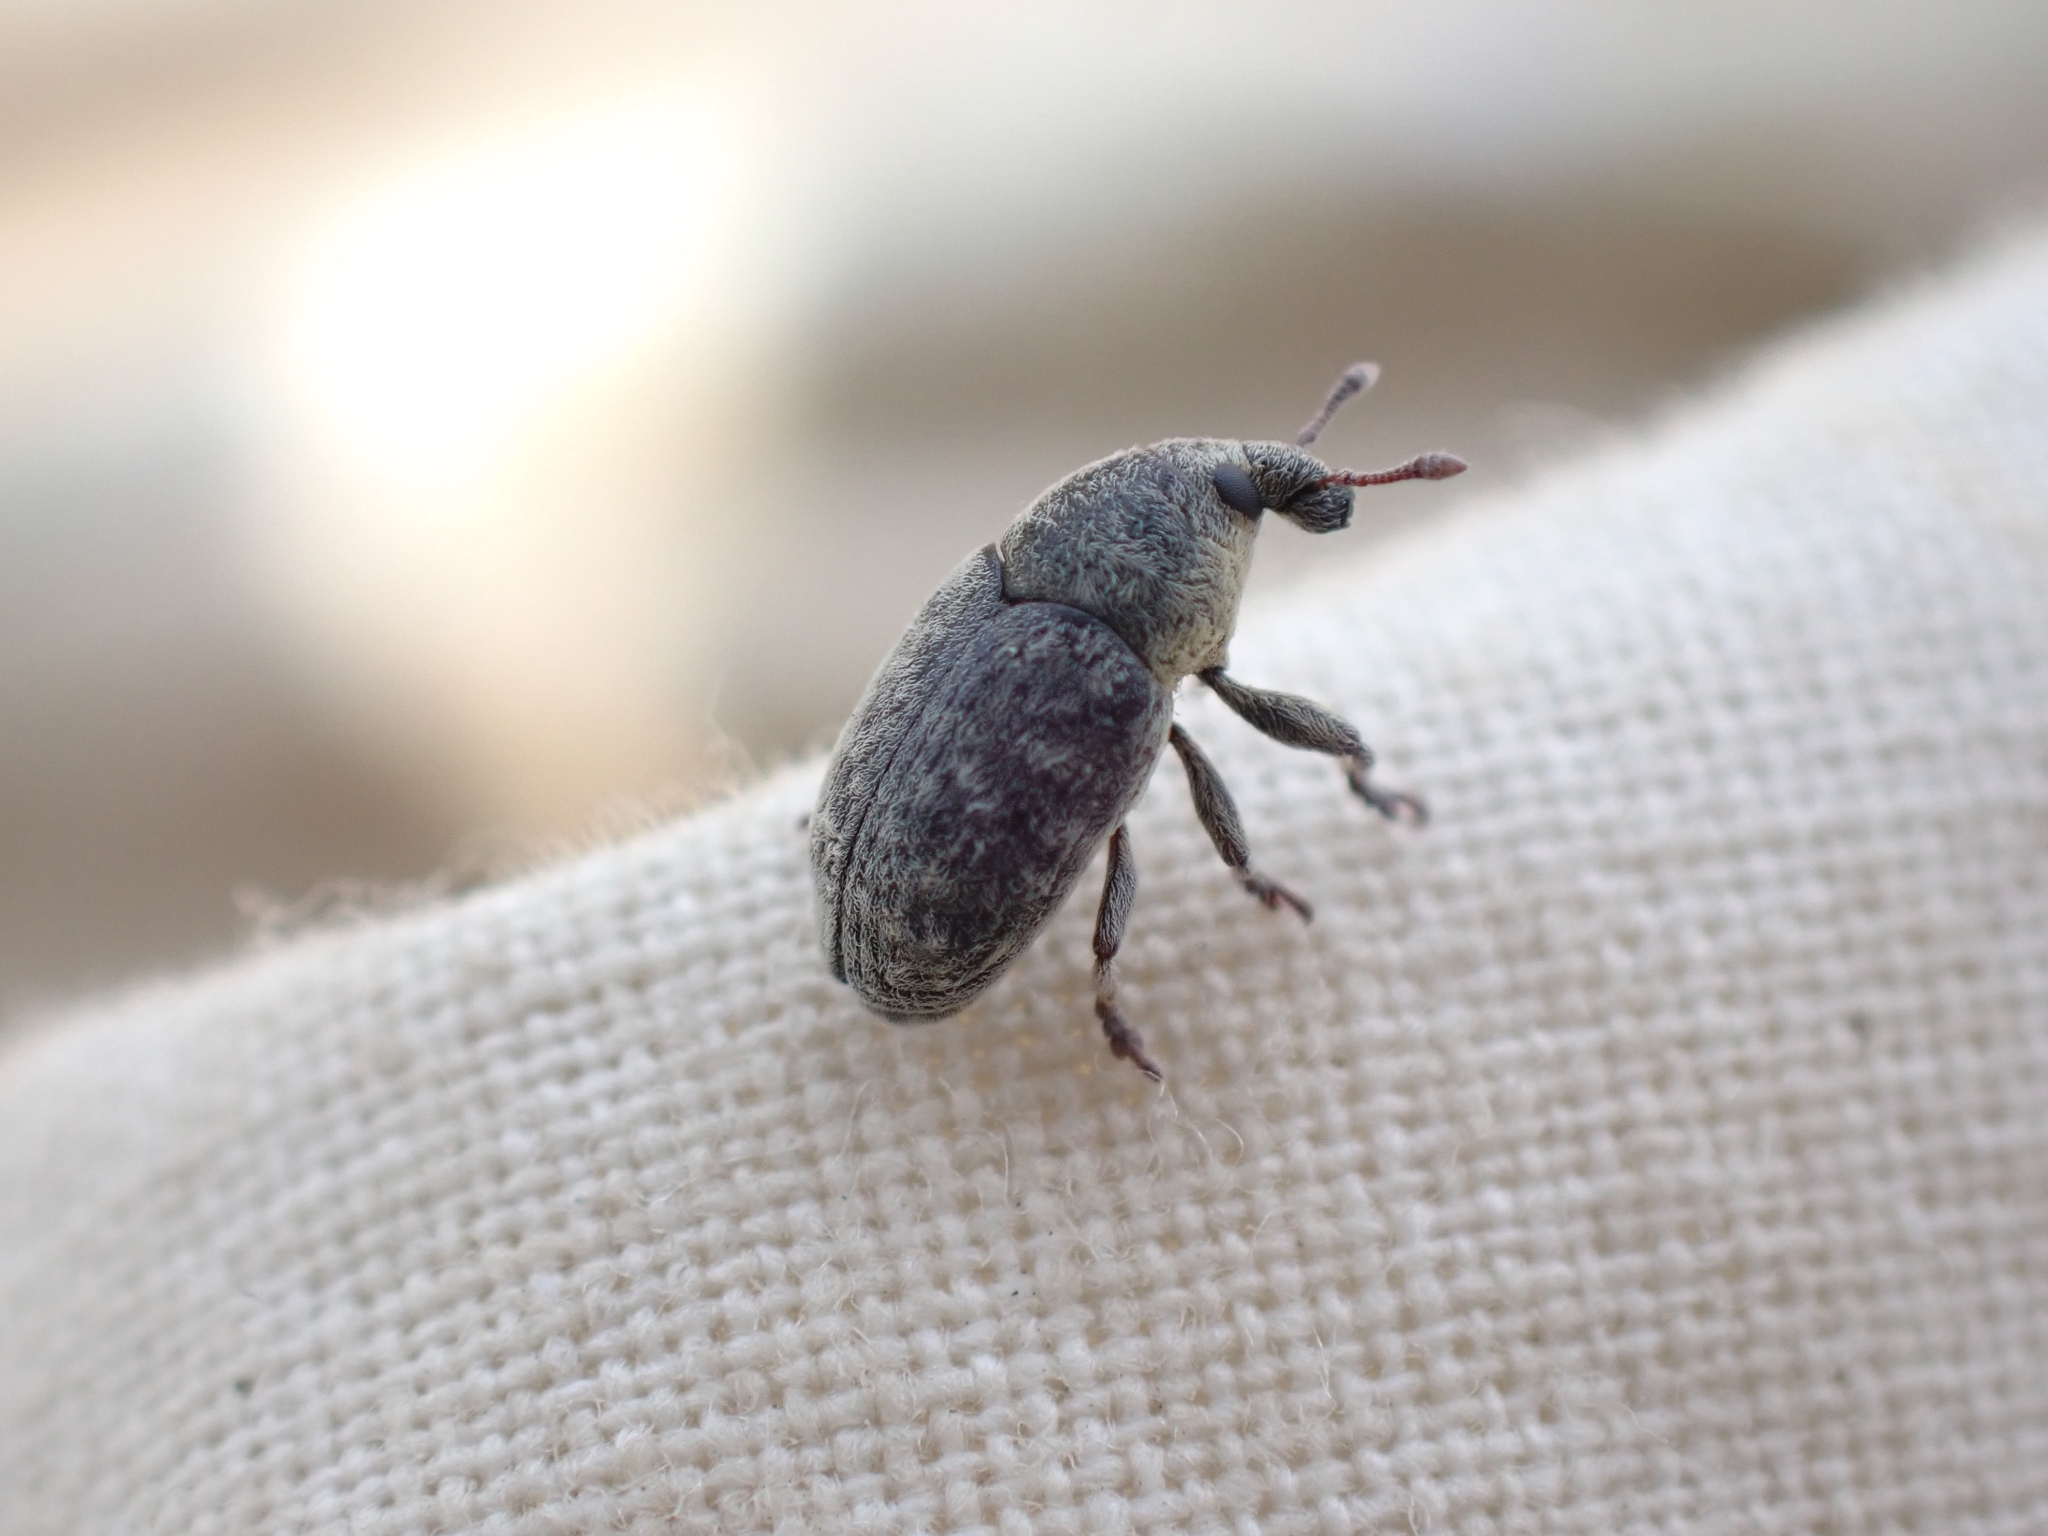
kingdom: Animalia
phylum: Arthropoda
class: Insecta
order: Coleoptera
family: Curculionidae
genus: Larinus
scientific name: Larinus minutus
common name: Weevil
